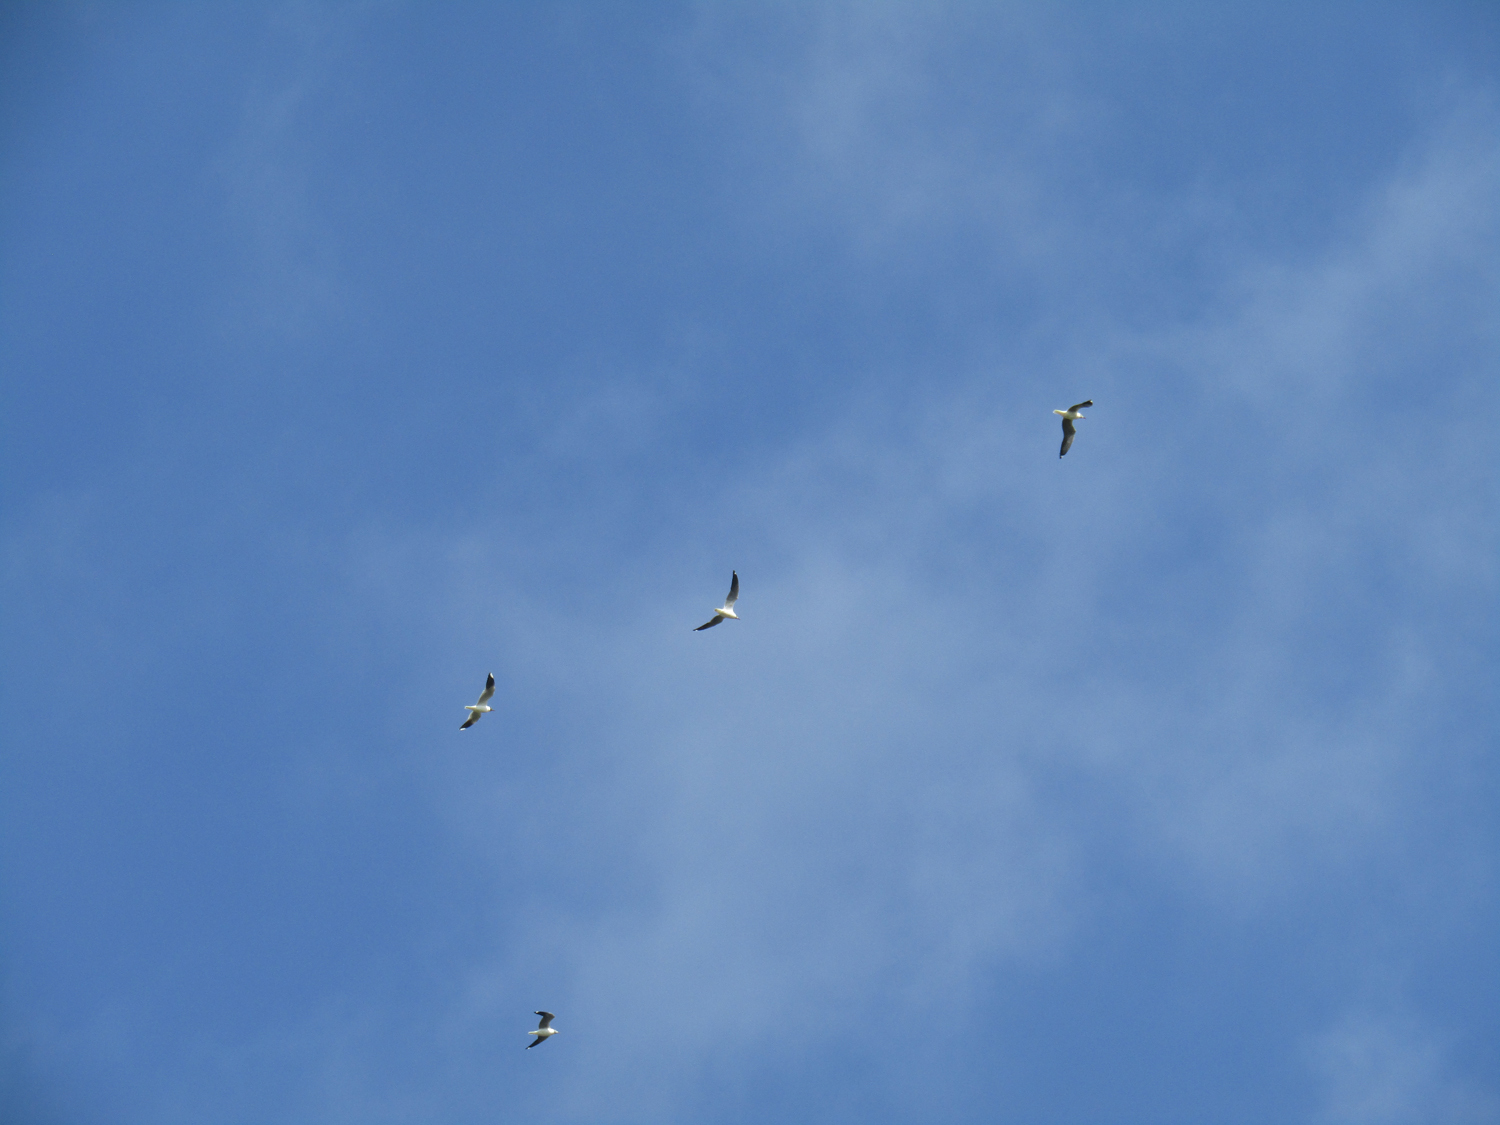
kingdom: Animalia
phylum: Chordata
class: Aves
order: Charadriiformes
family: Laridae
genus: Chroicocephalus
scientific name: Chroicocephalus maculipennis
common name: Brown-hooded gull
